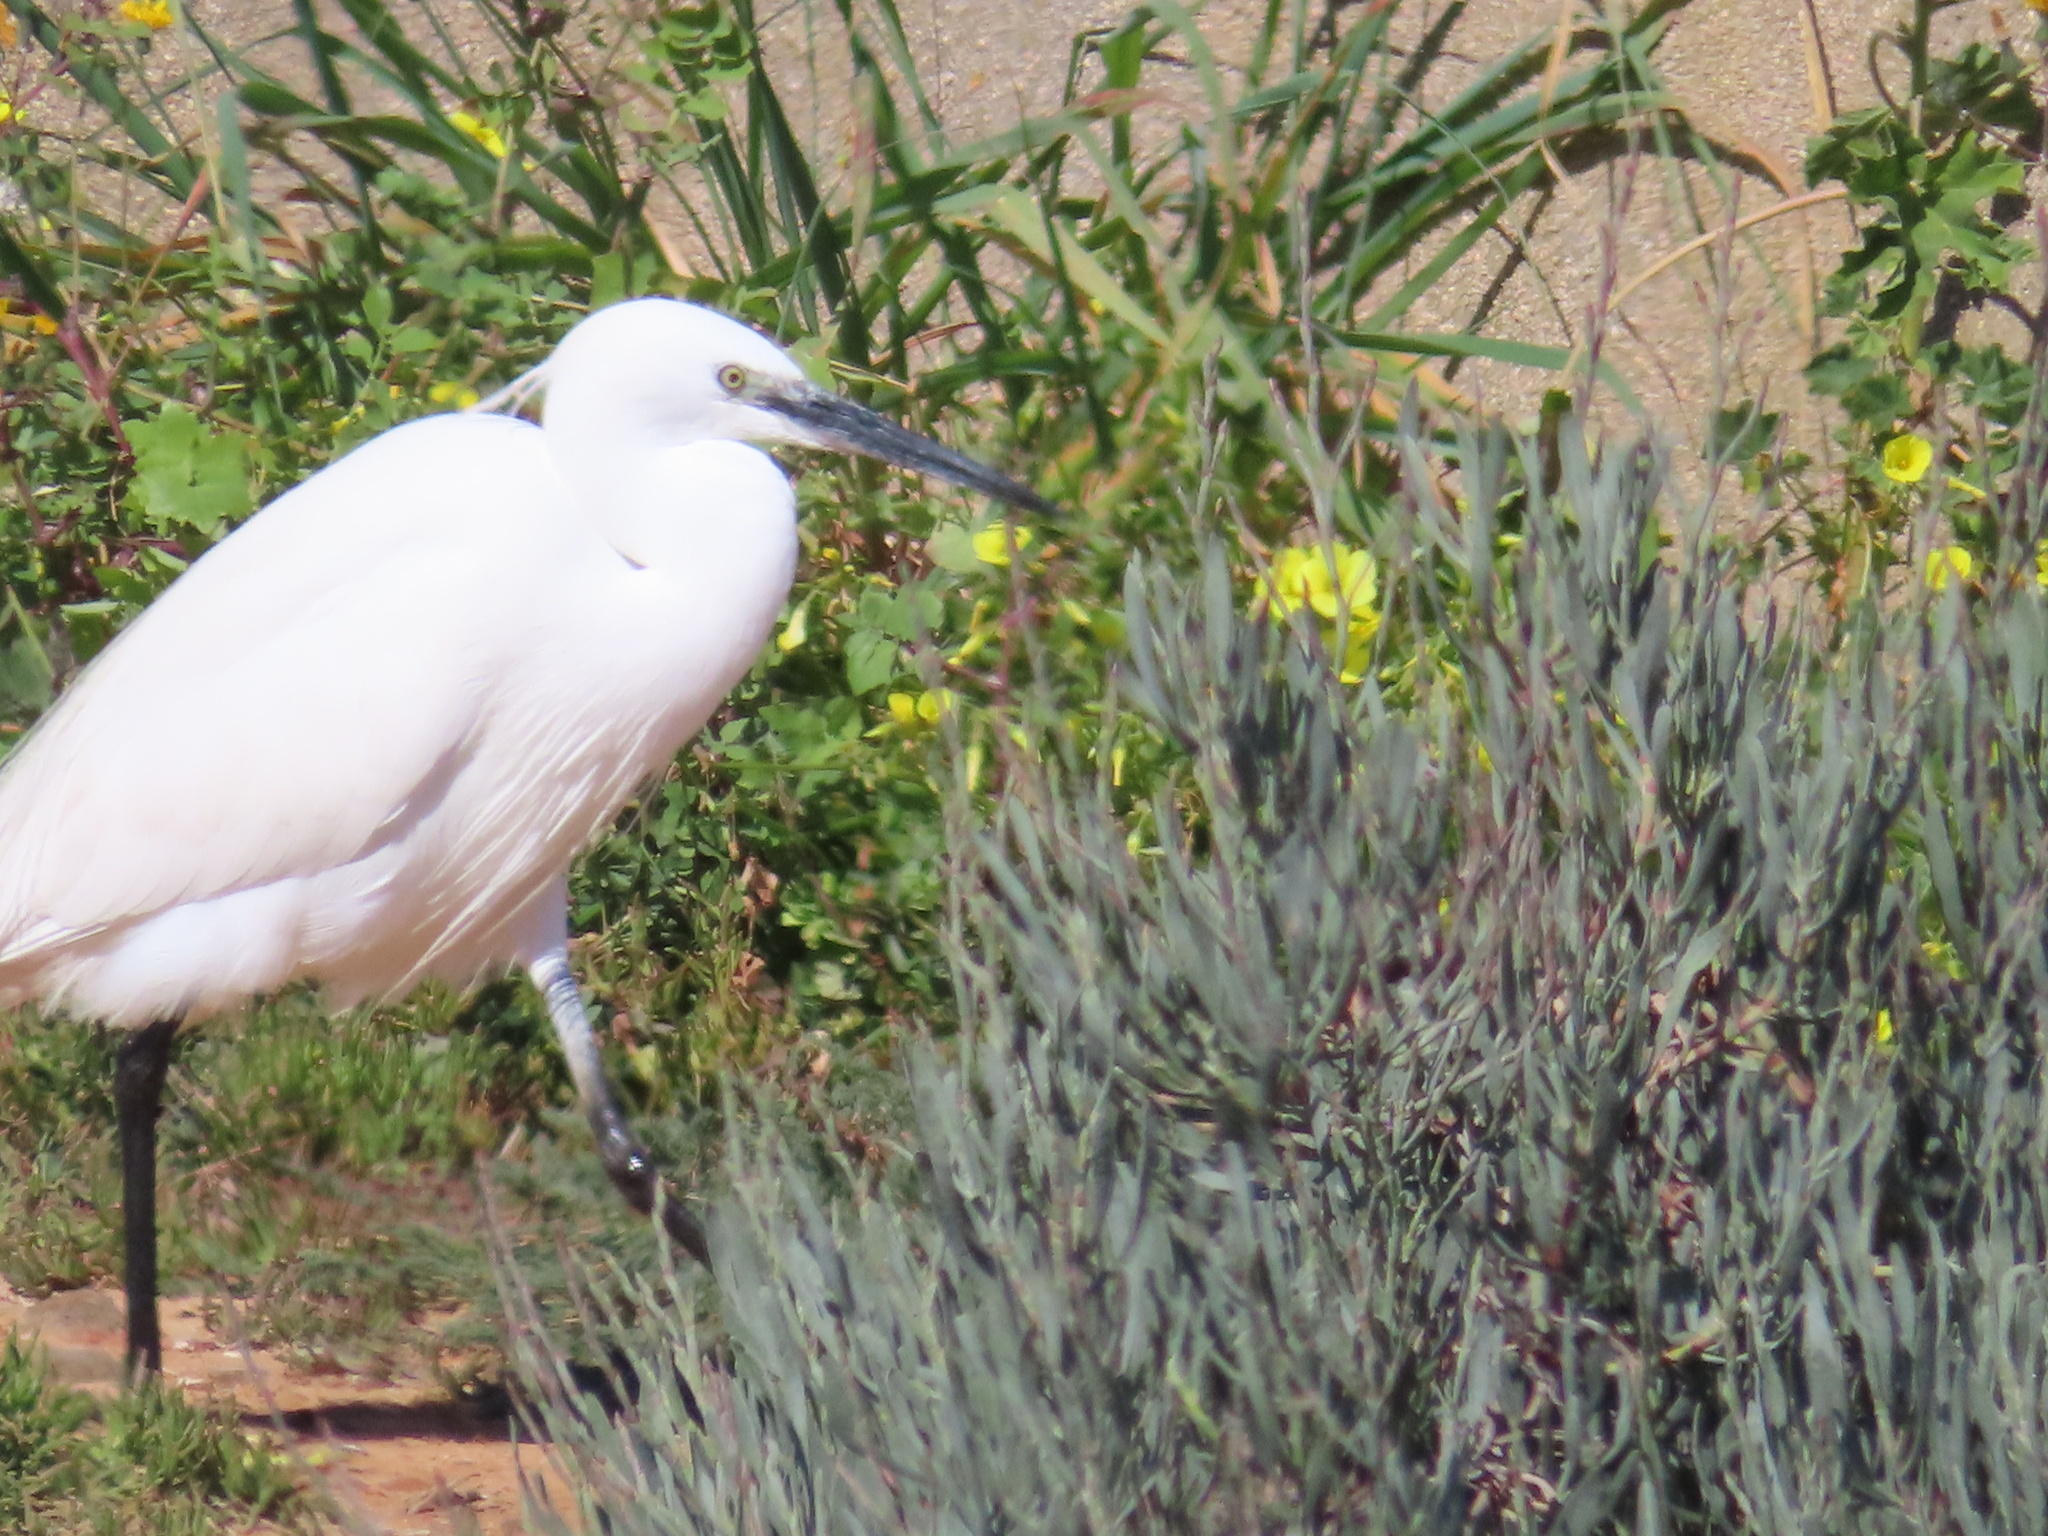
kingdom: Animalia
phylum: Chordata
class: Aves
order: Pelecaniformes
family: Ardeidae
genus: Egretta
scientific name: Egretta garzetta
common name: Little egret
